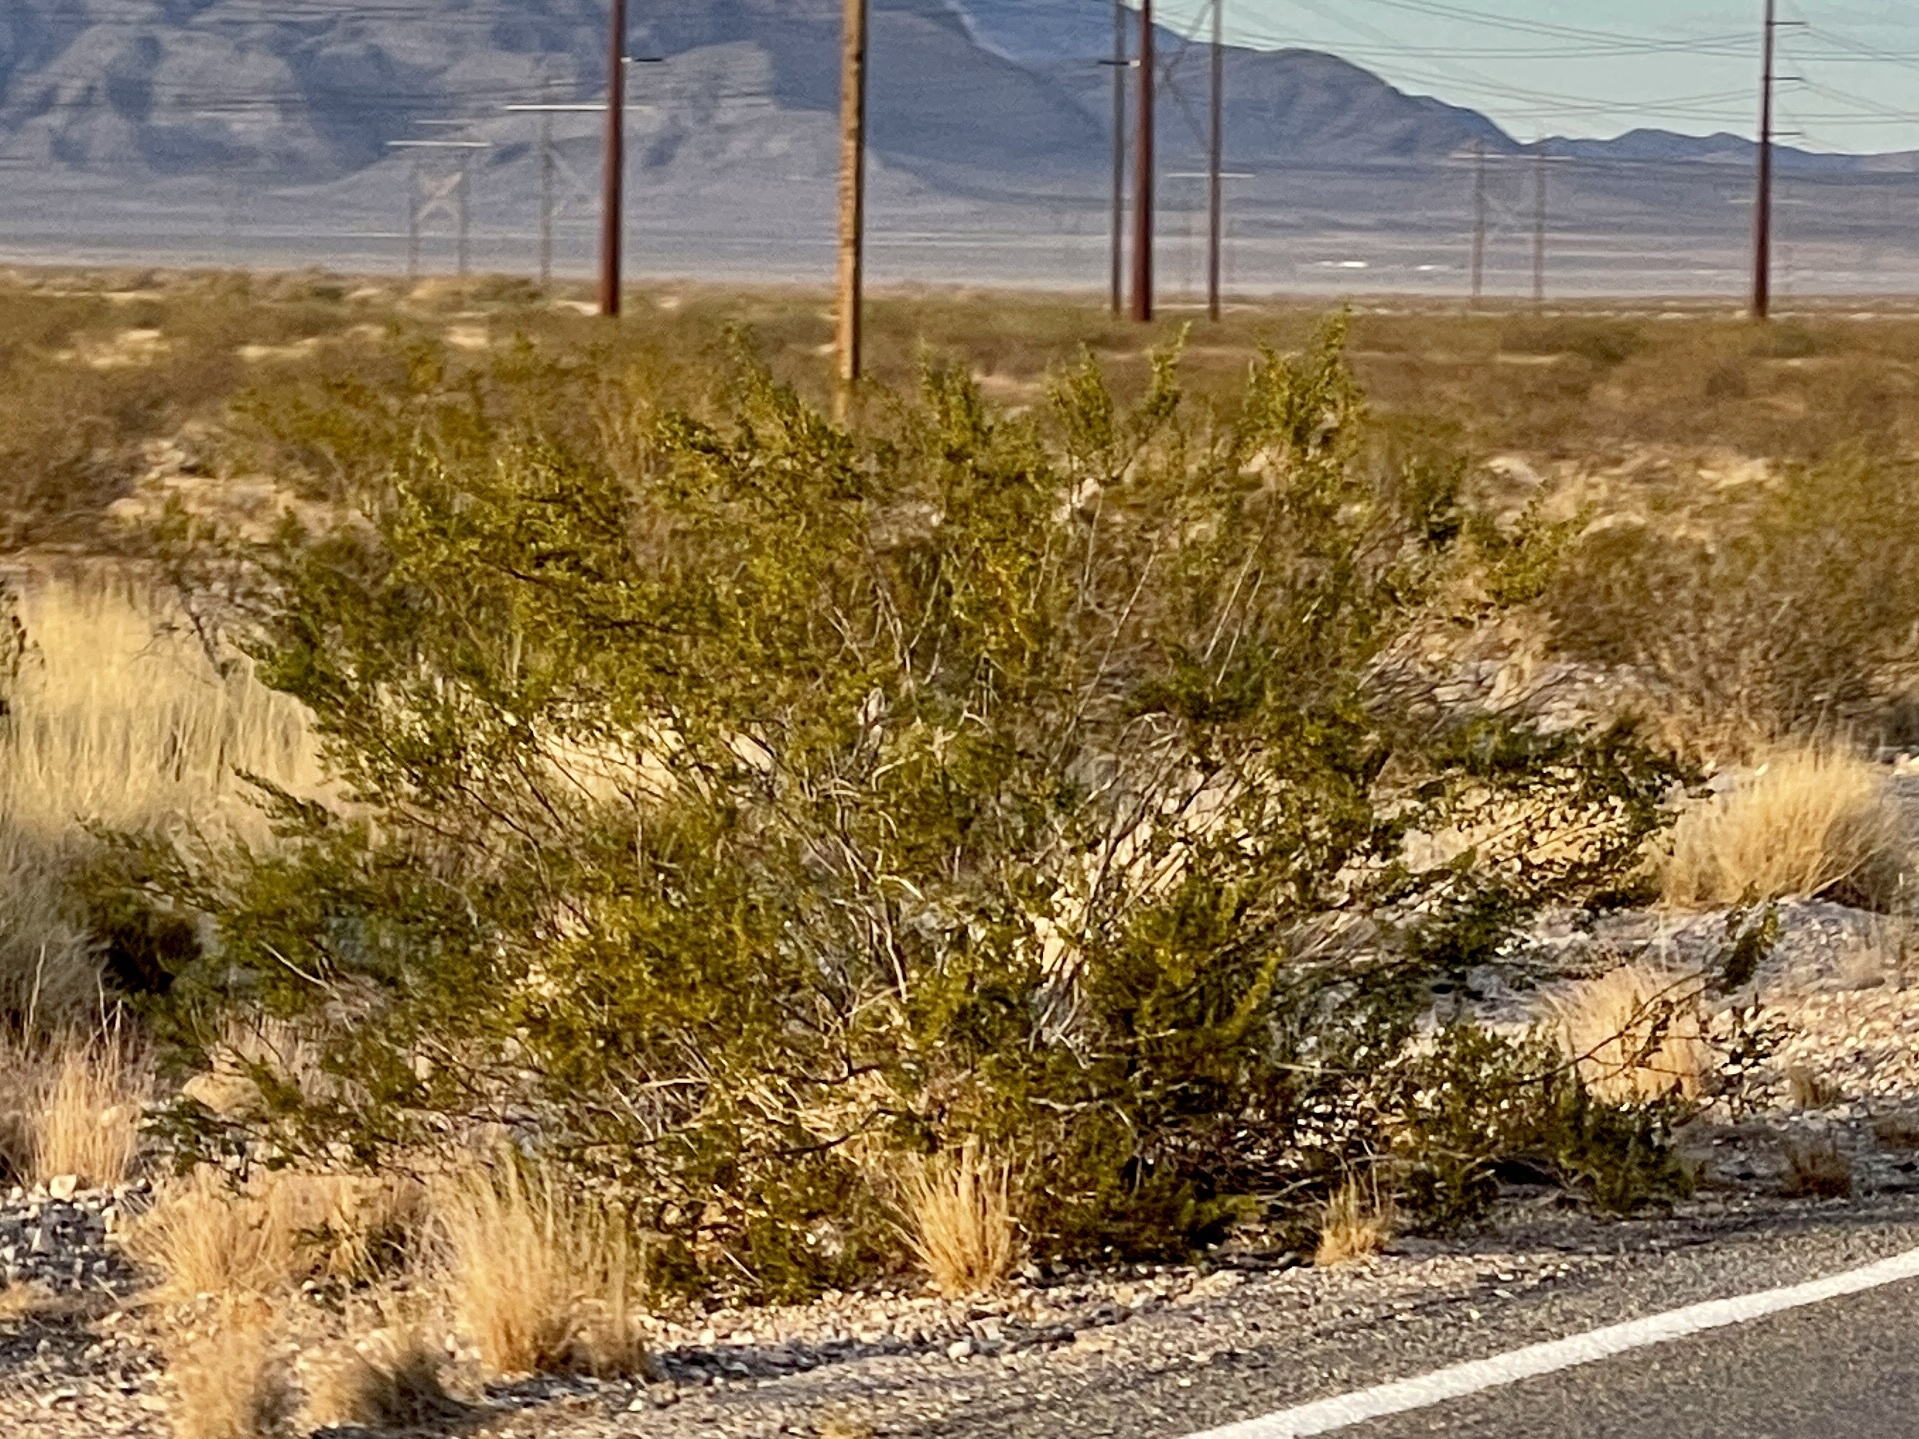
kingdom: Plantae
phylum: Tracheophyta
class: Magnoliopsida
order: Zygophyllales
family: Zygophyllaceae
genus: Larrea
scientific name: Larrea tridentata
